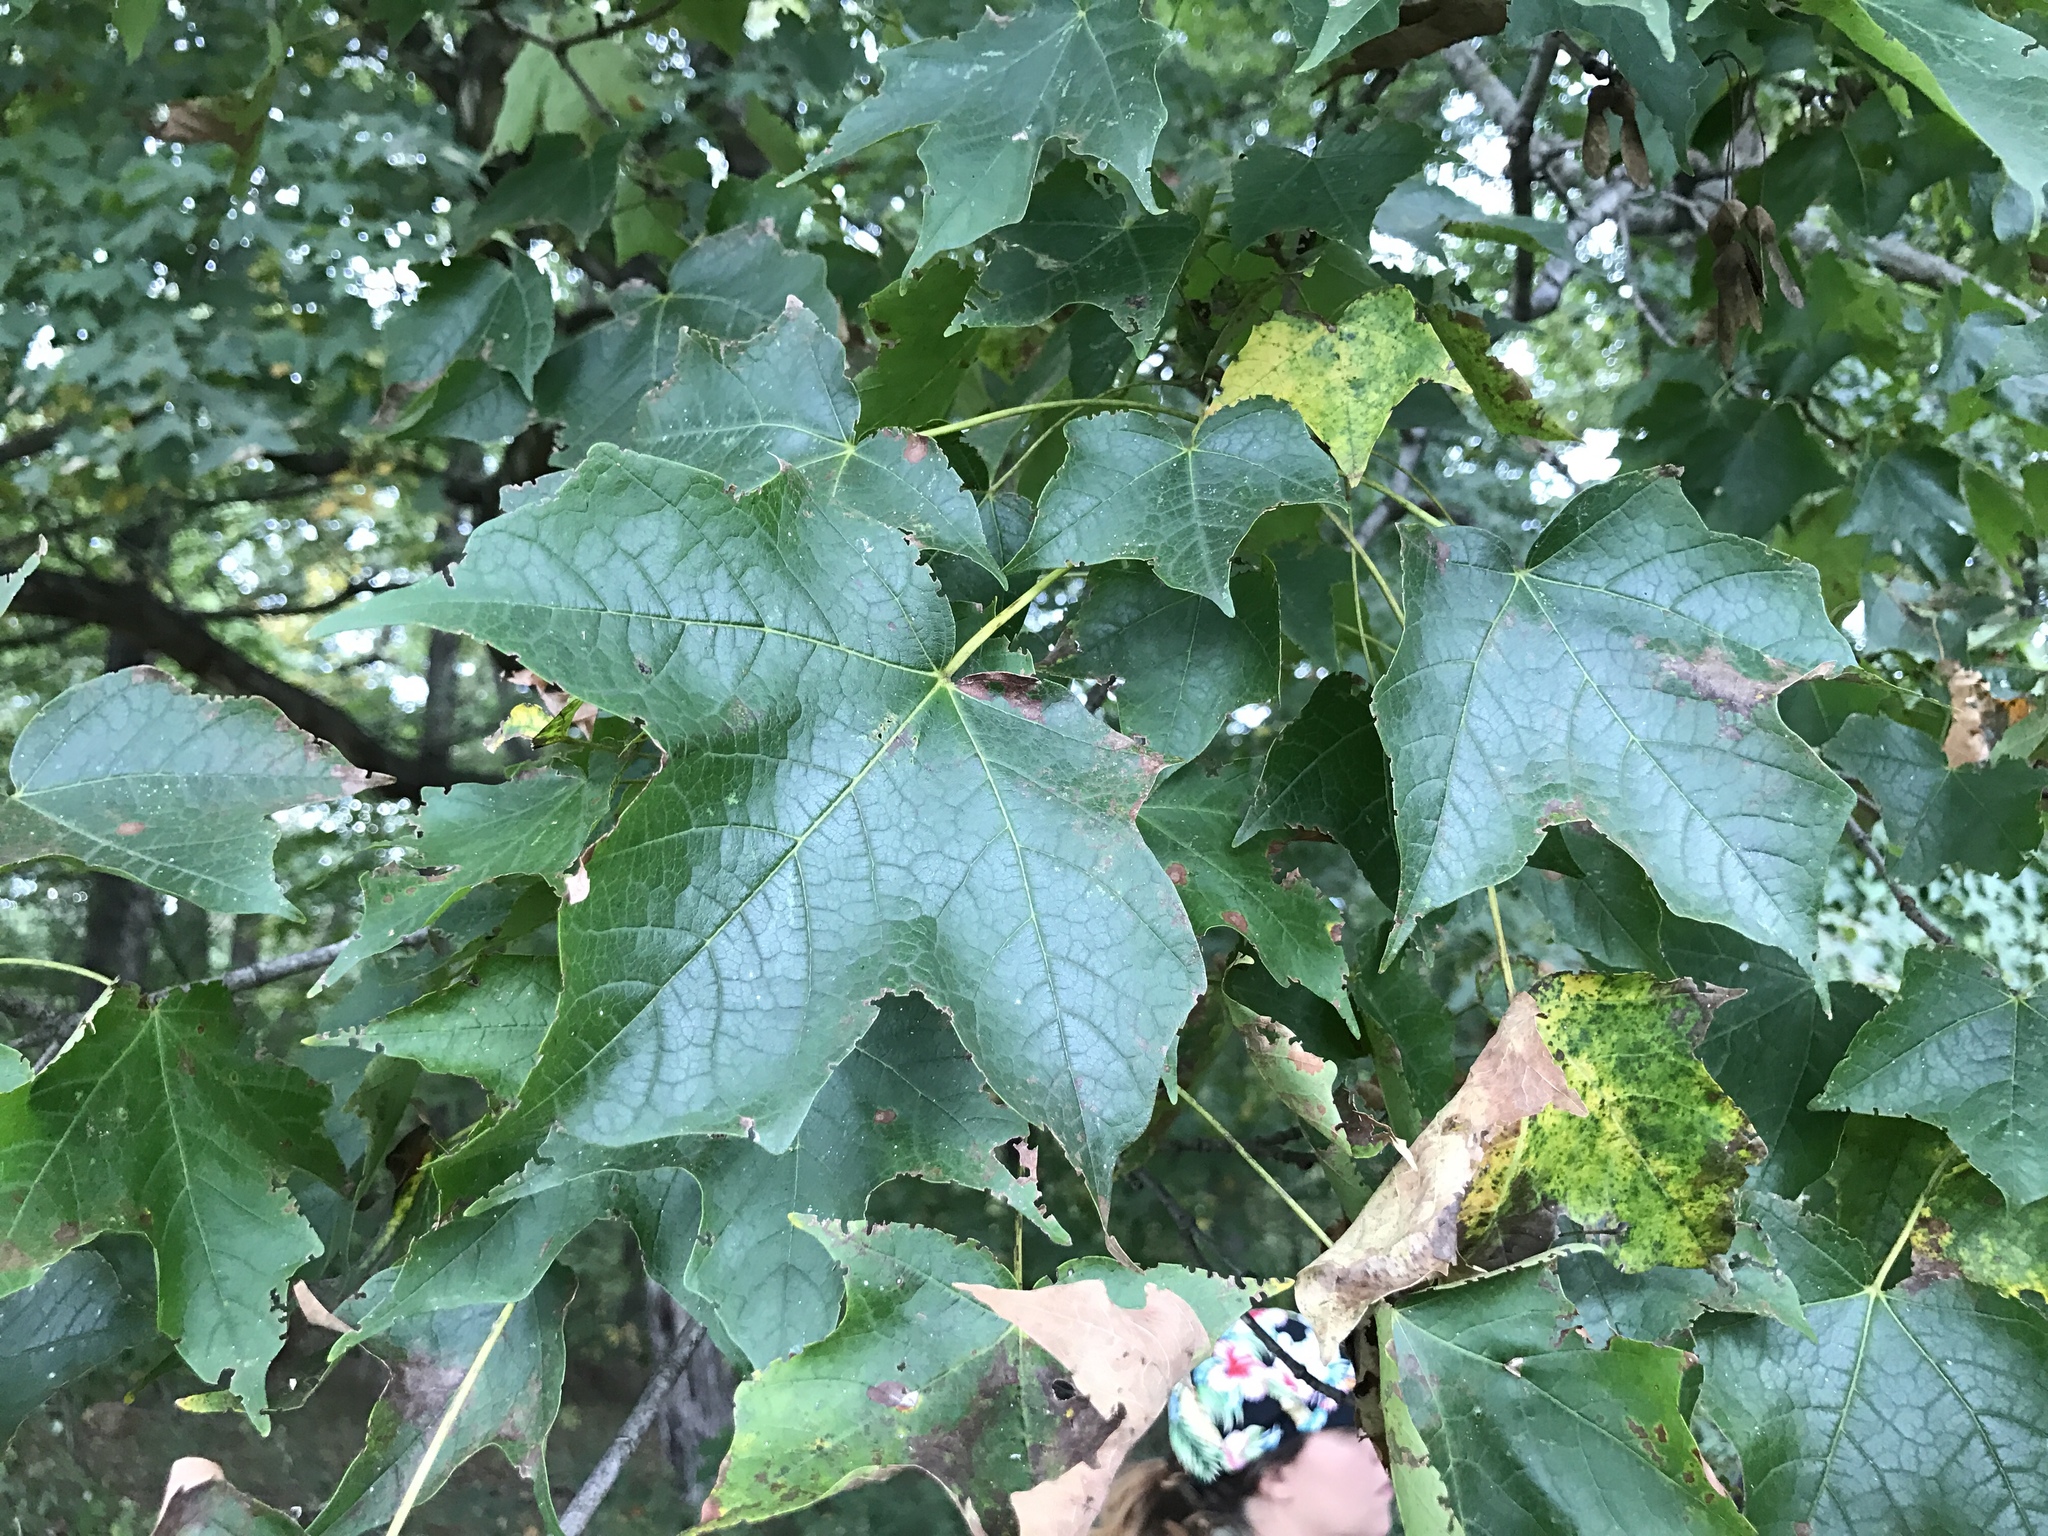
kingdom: Plantae
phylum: Tracheophyta
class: Magnoliopsida
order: Sapindales
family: Sapindaceae
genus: Acer
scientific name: Acer nigrum
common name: Black maple
